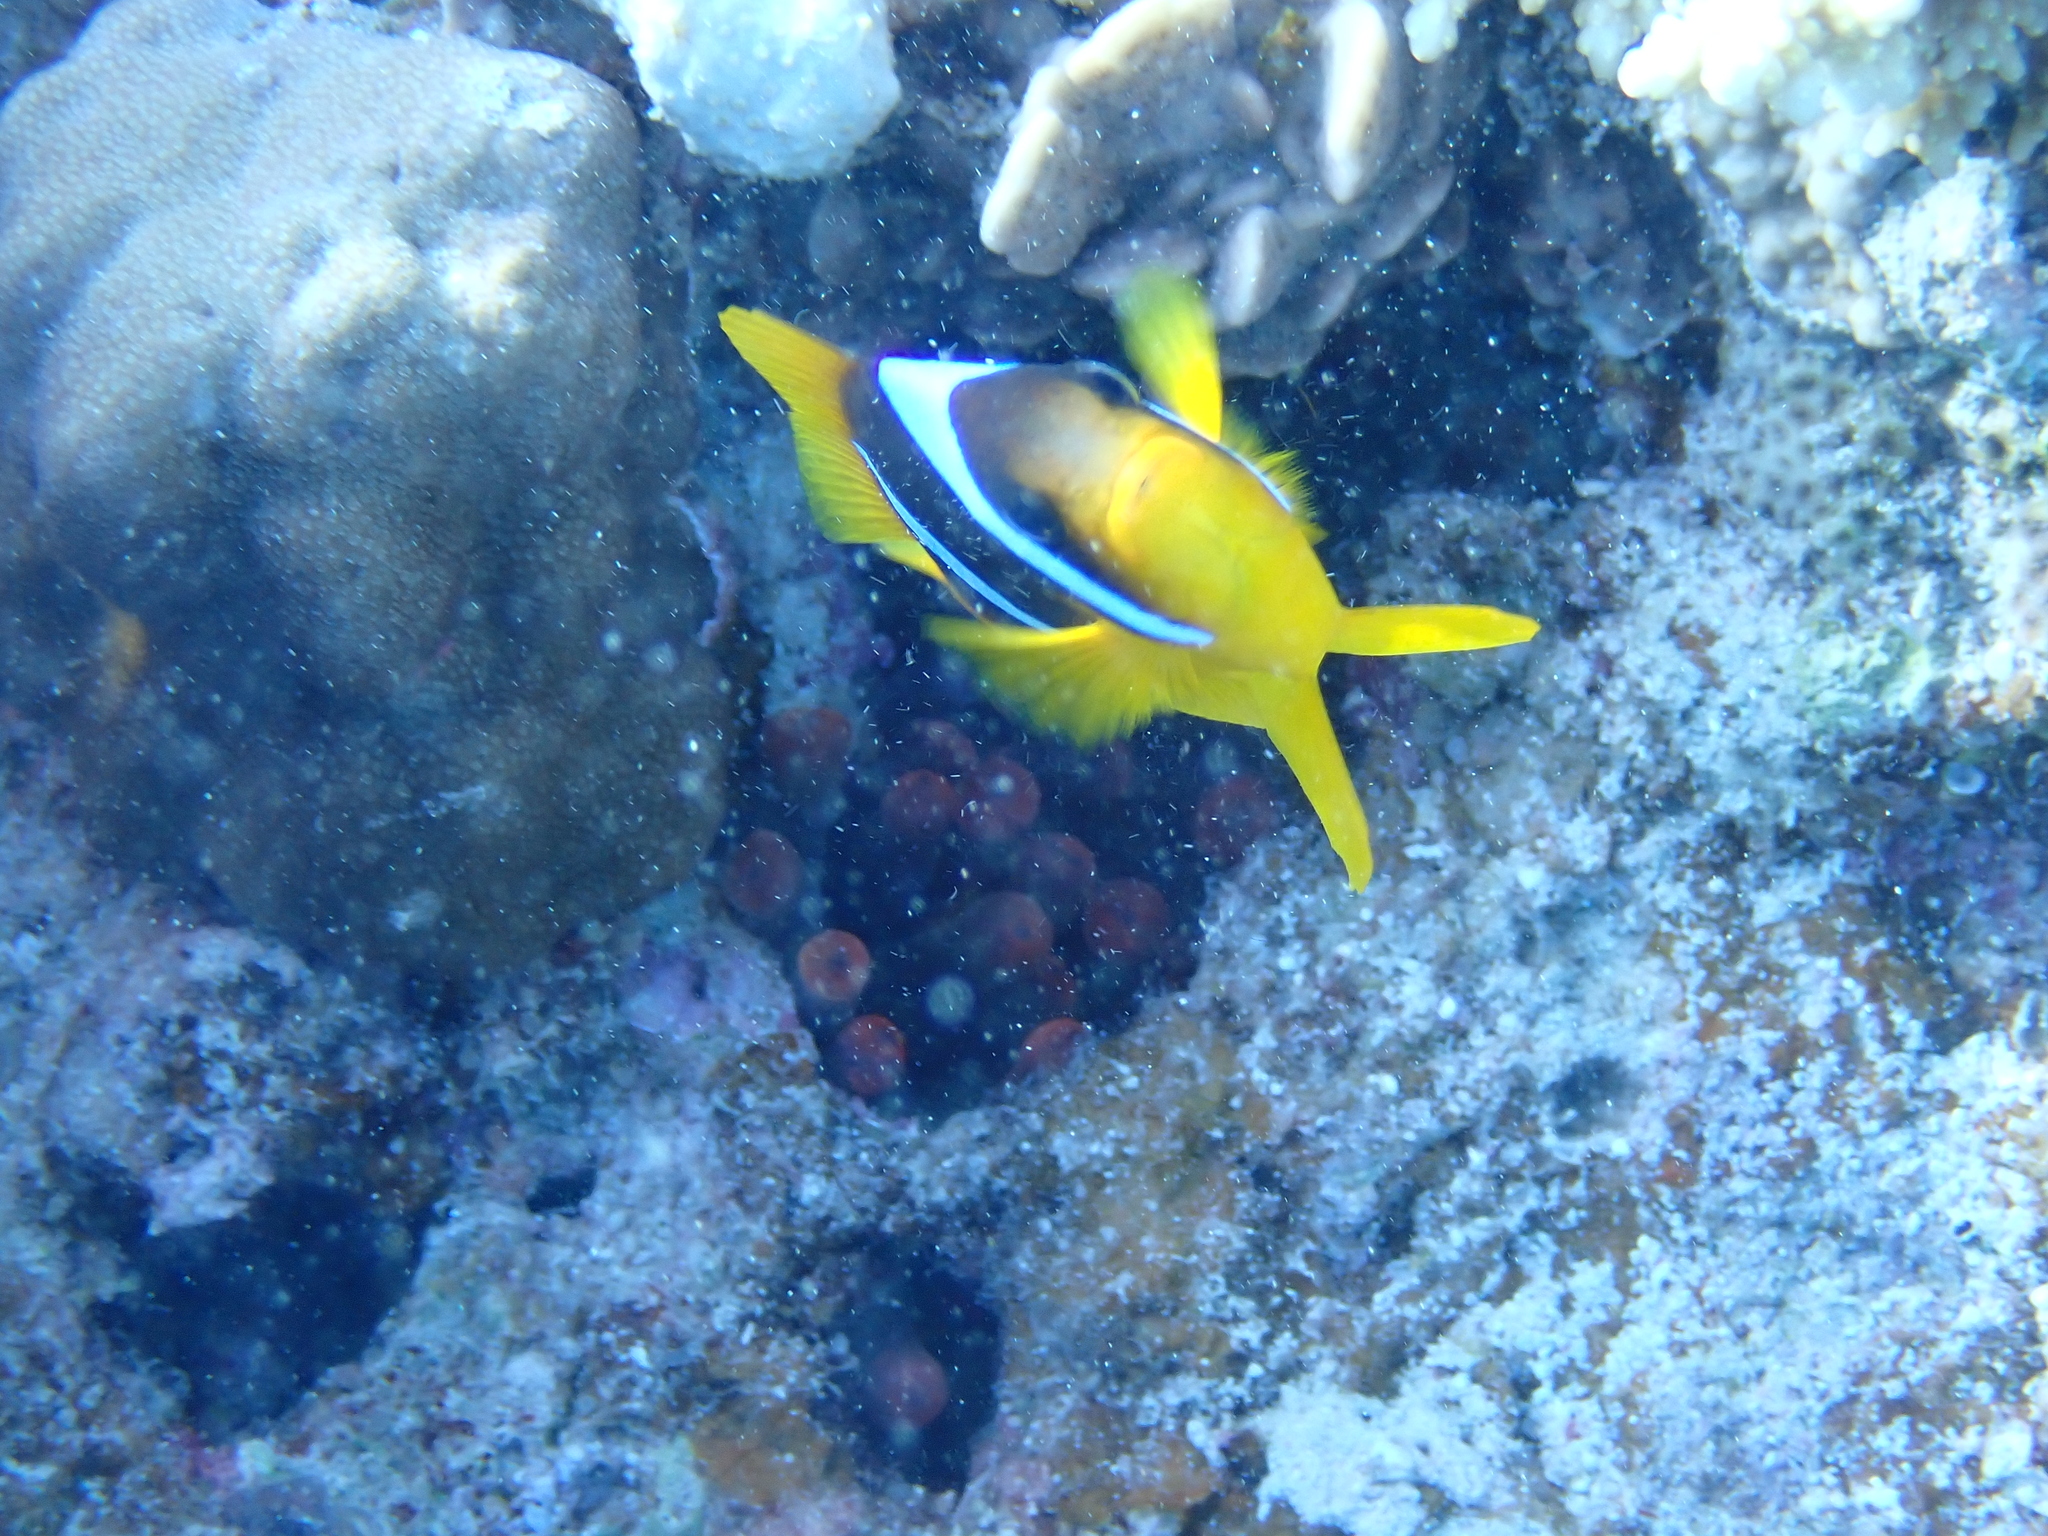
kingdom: Animalia
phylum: Chordata
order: Perciformes
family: Pomacentridae
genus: Amphiprion
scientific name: Amphiprion bicinctus
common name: Two-banded anemonefish
